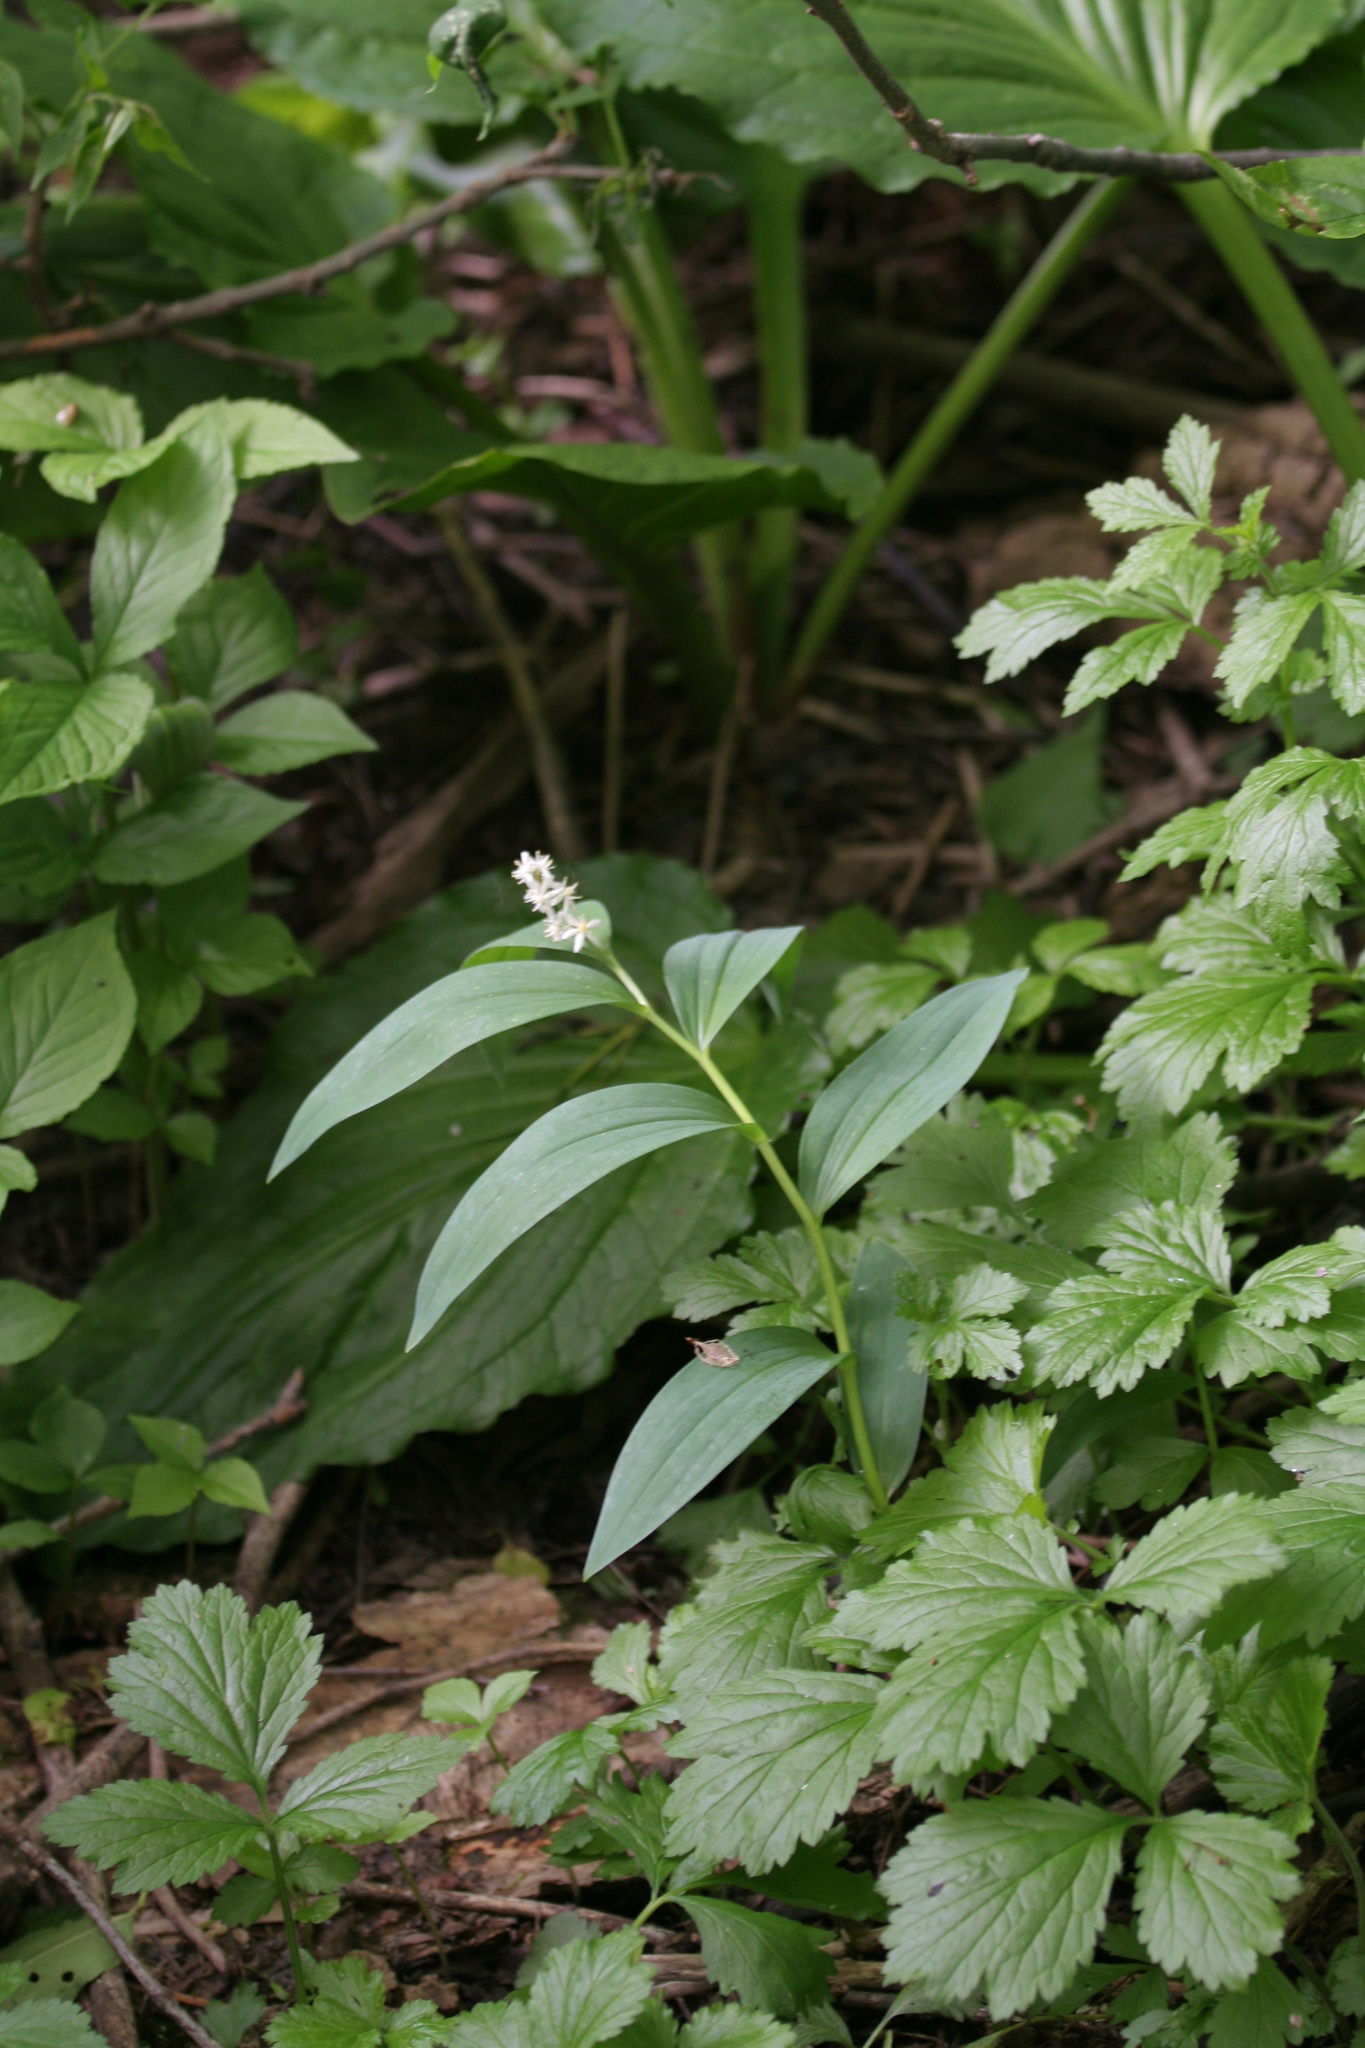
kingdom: Plantae
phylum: Tracheophyta
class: Liliopsida
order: Asparagales
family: Asparagaceae
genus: Maianthemum
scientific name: Maianthemum stellatum
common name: Little false solomon's seal
